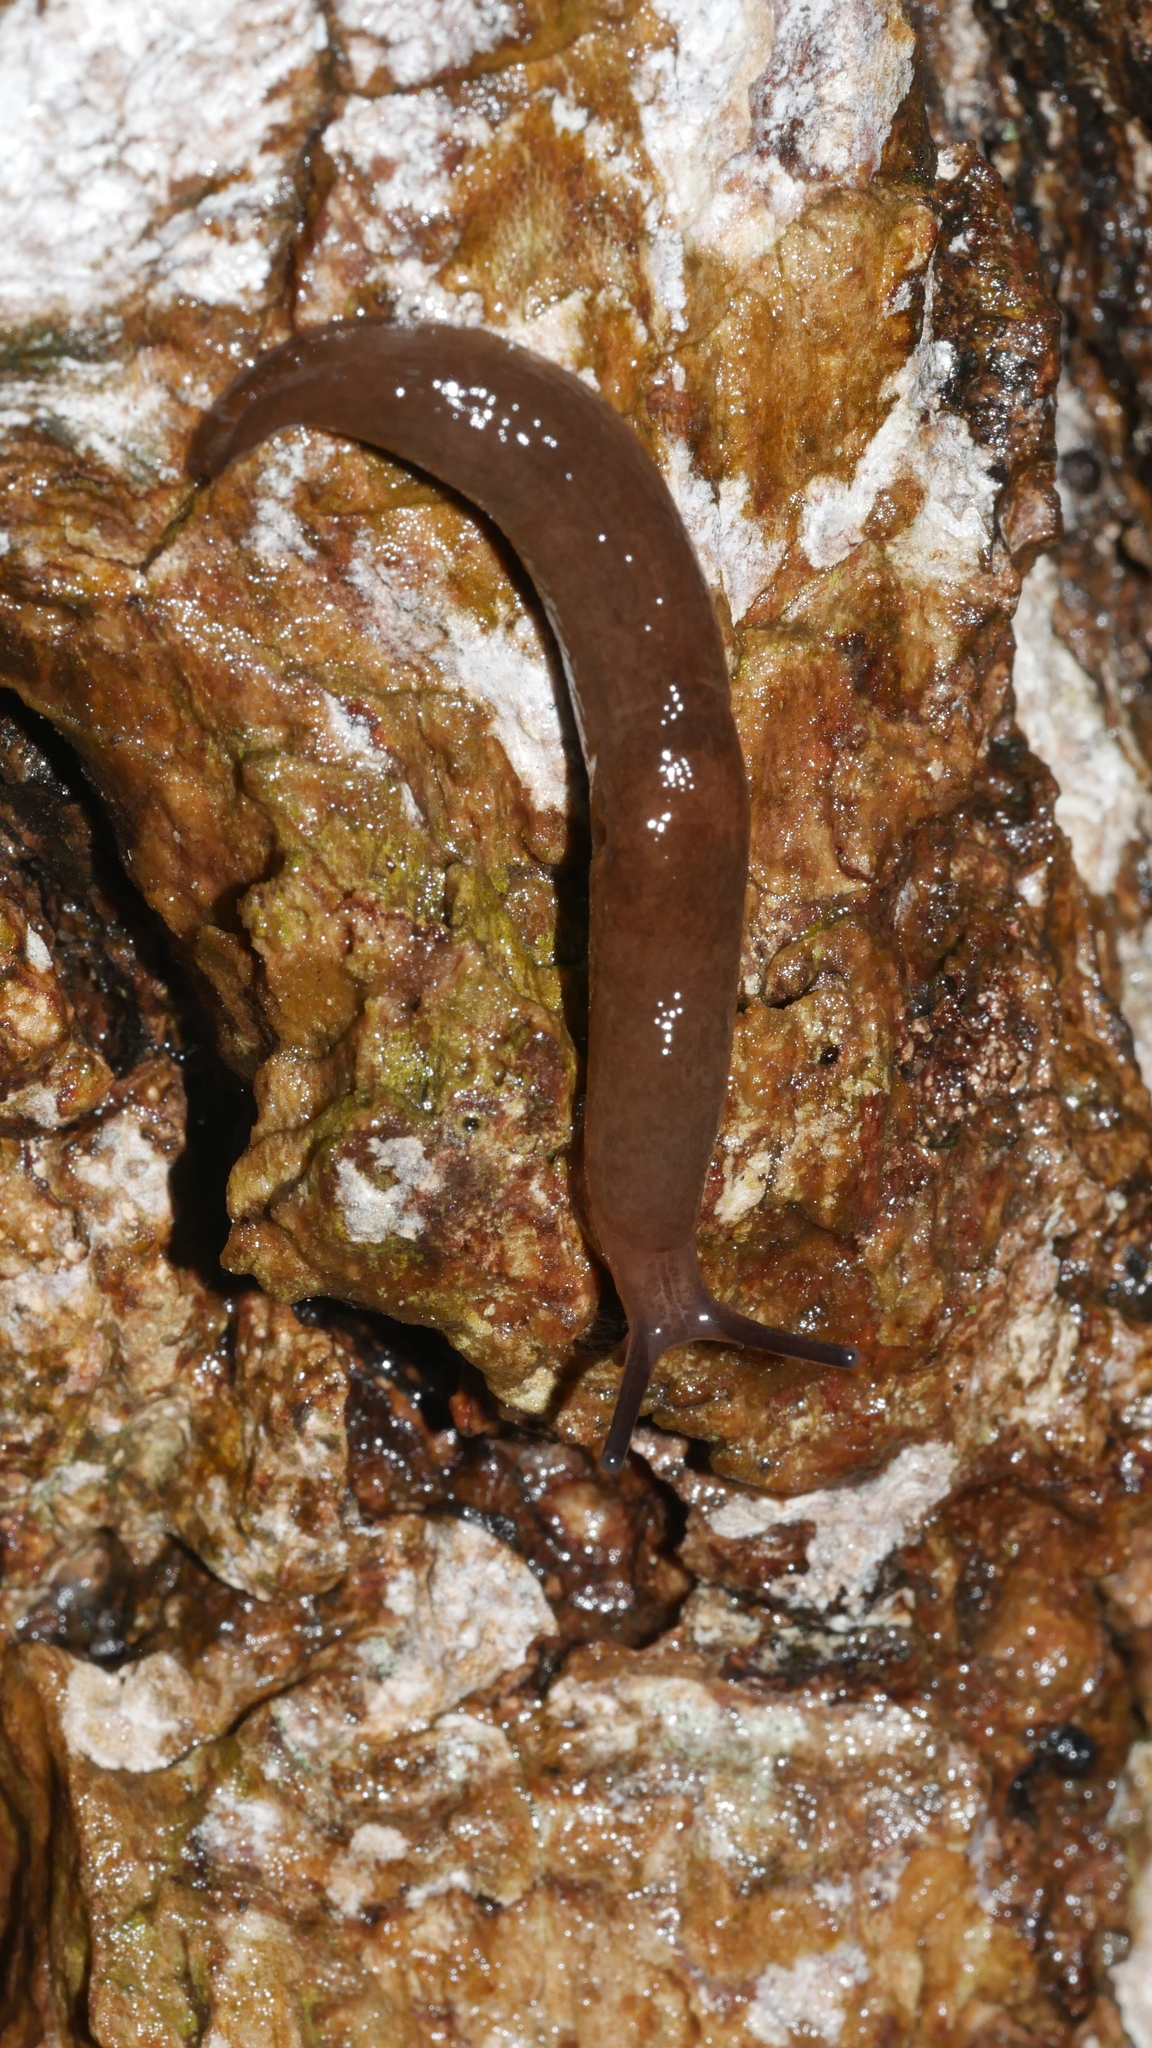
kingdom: Animalia
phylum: Mollusca
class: Gastropoda
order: Stylommatophora
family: Agriolimacidae
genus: Deroceras
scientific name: Deroceras
